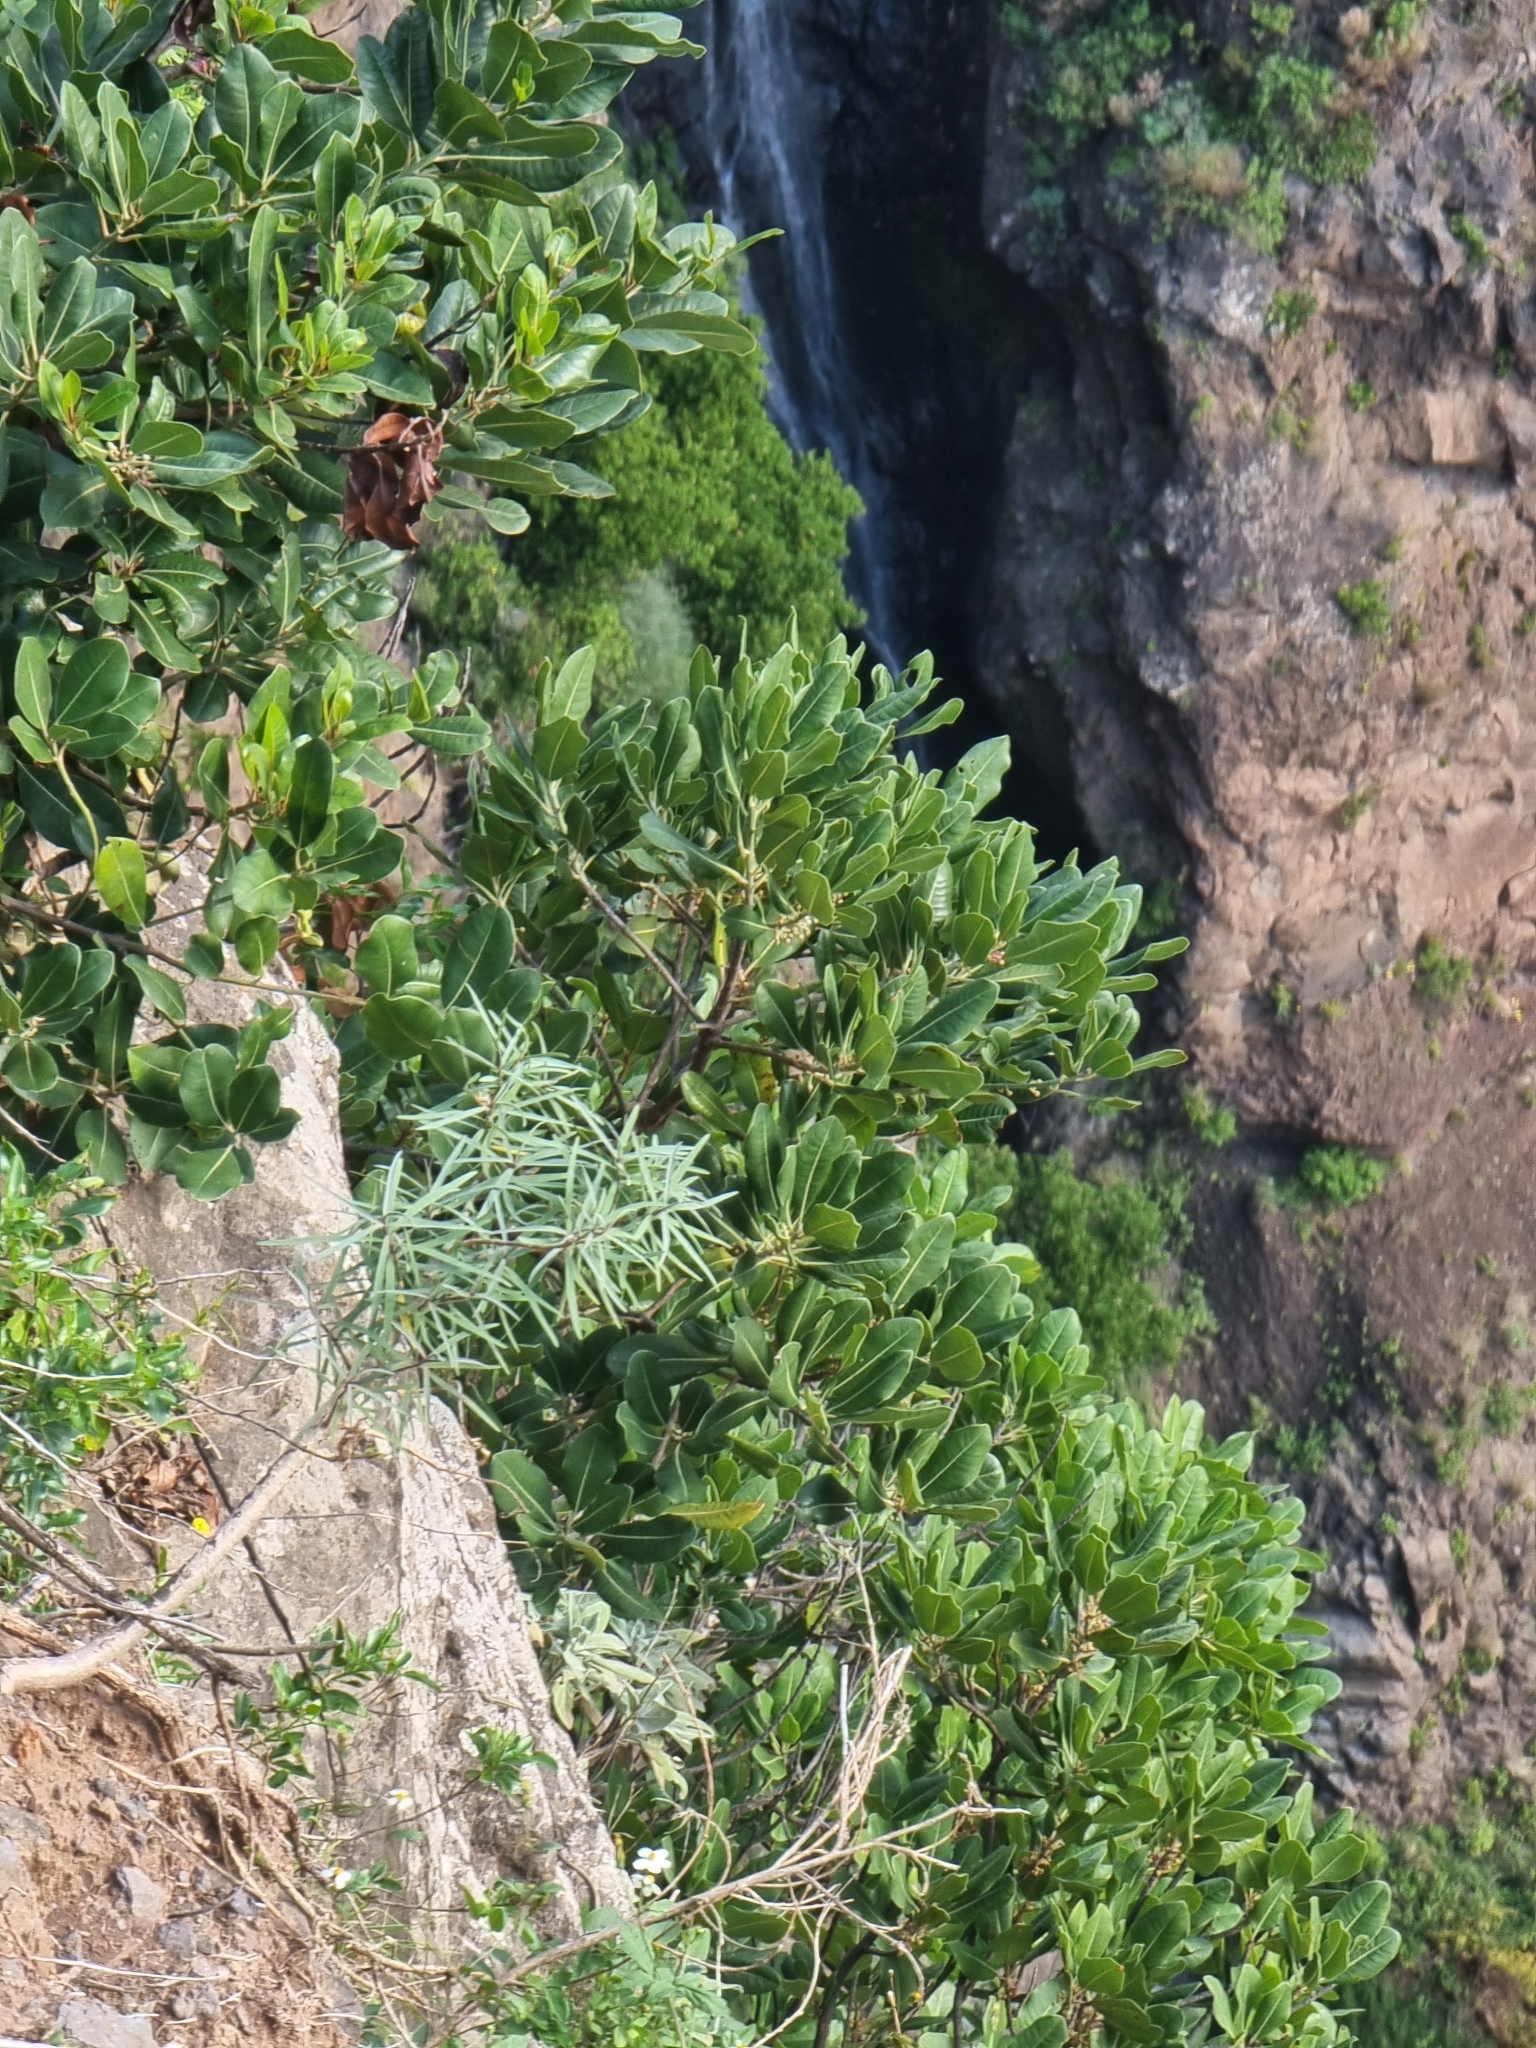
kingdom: Plantae
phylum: Tracheophyta
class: Magnoliopsida
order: Ericales
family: Sapotaceae
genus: Sideroxylon
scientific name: Sideroxylon mirmulans
